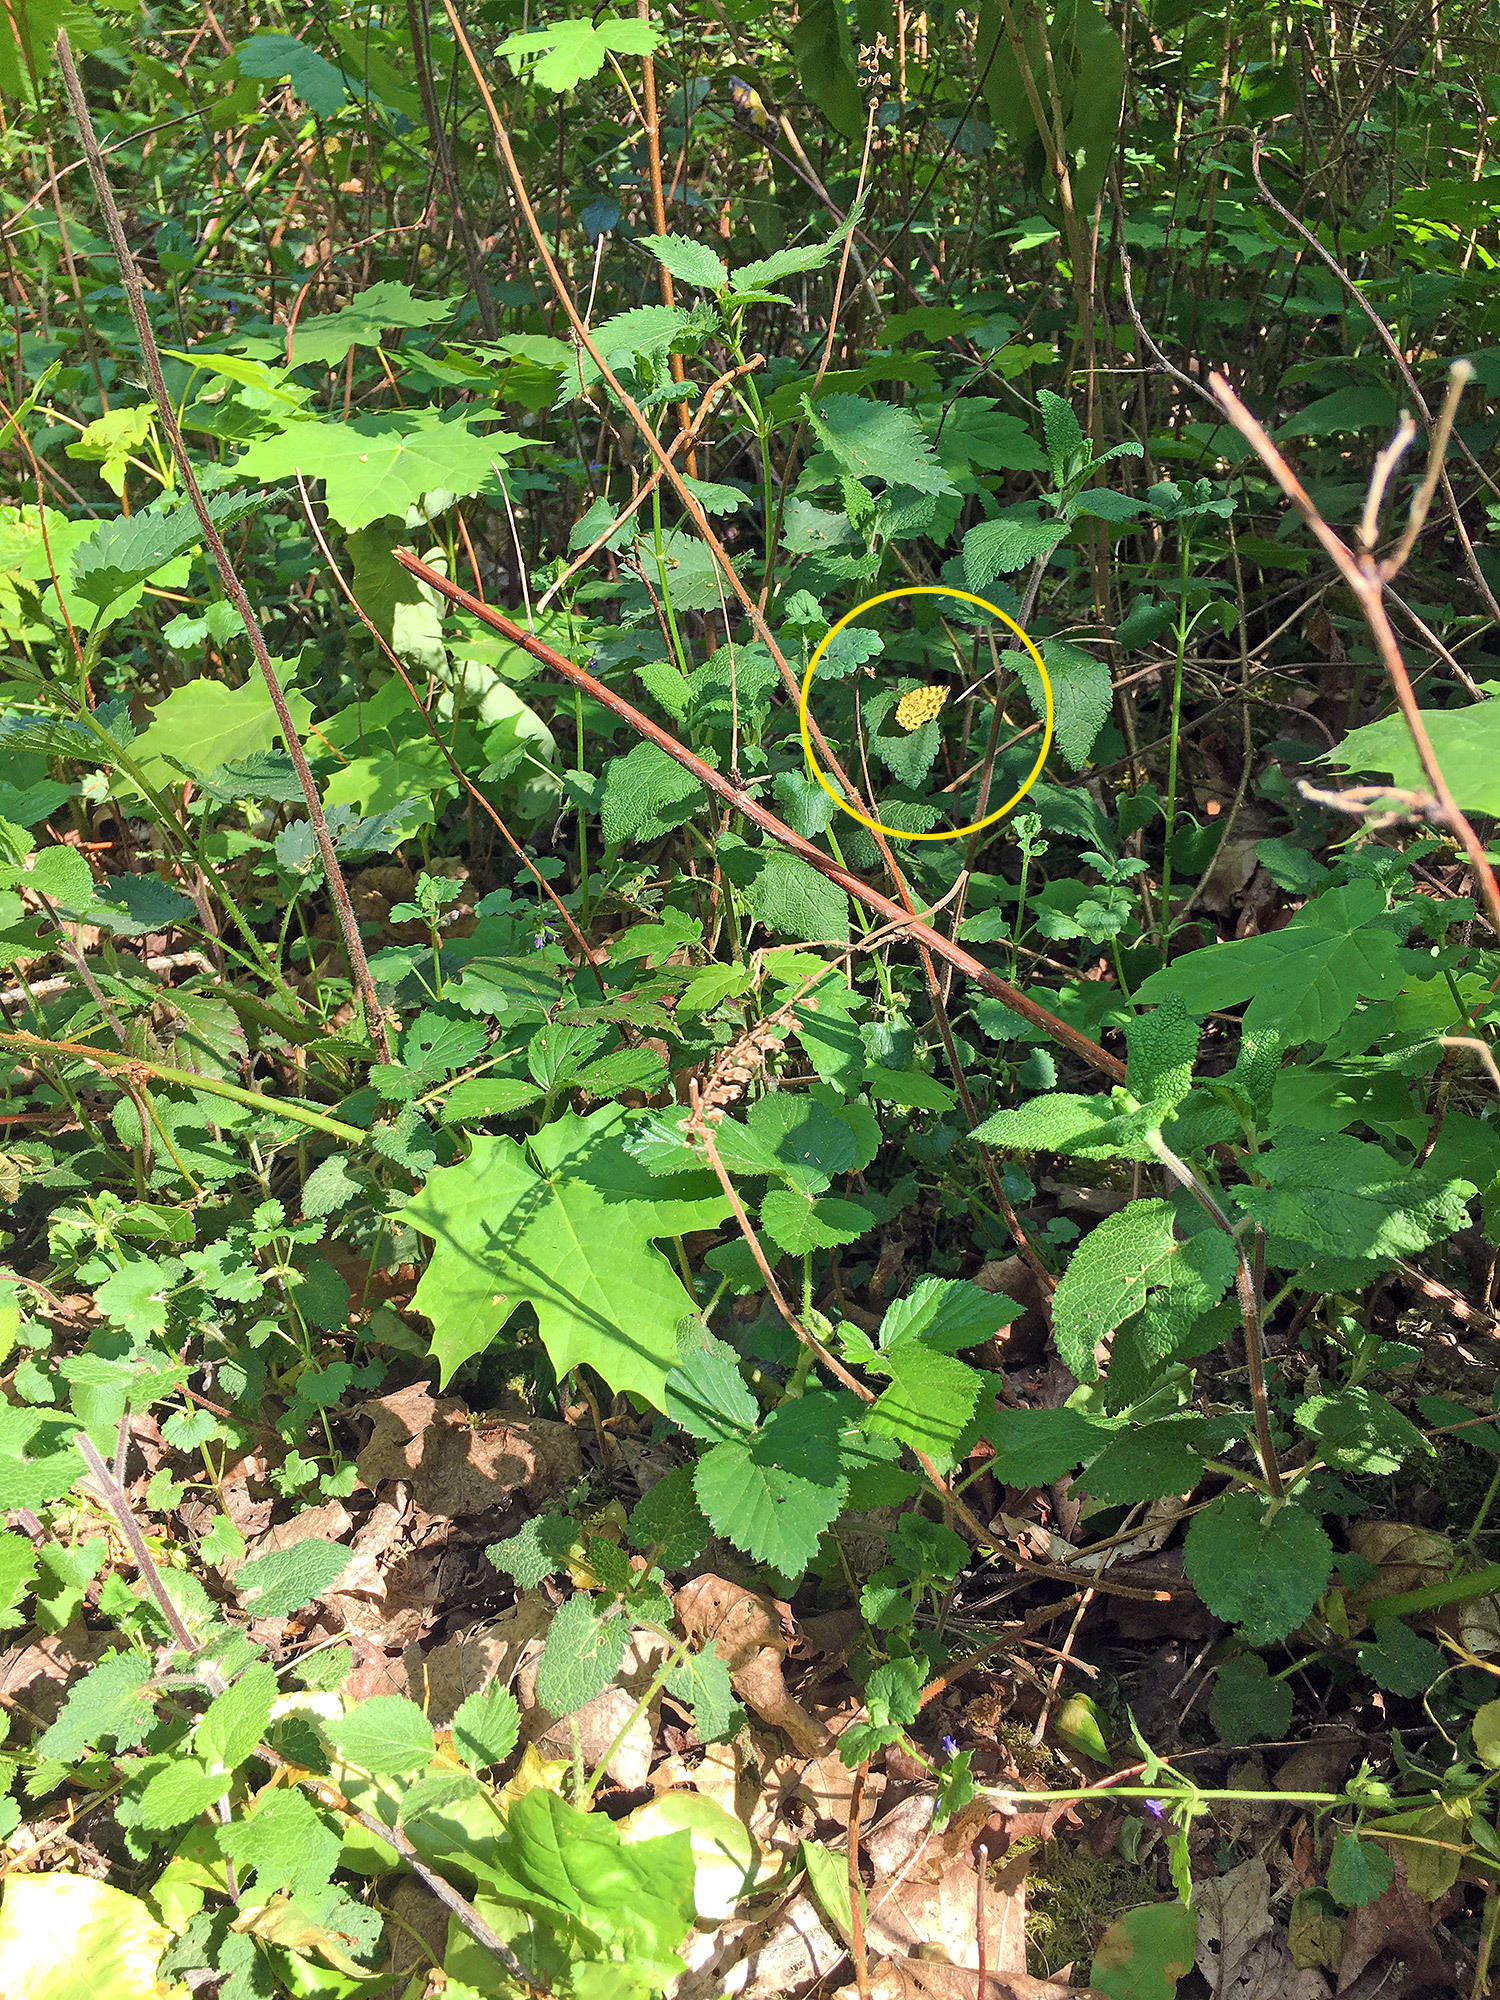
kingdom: Animalia
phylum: Arthropoda
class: Insecta
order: Lepidoptera
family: Geometridae
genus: Pseudopanthera
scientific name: Pseudopanthera macularia
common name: Speckled yellow
